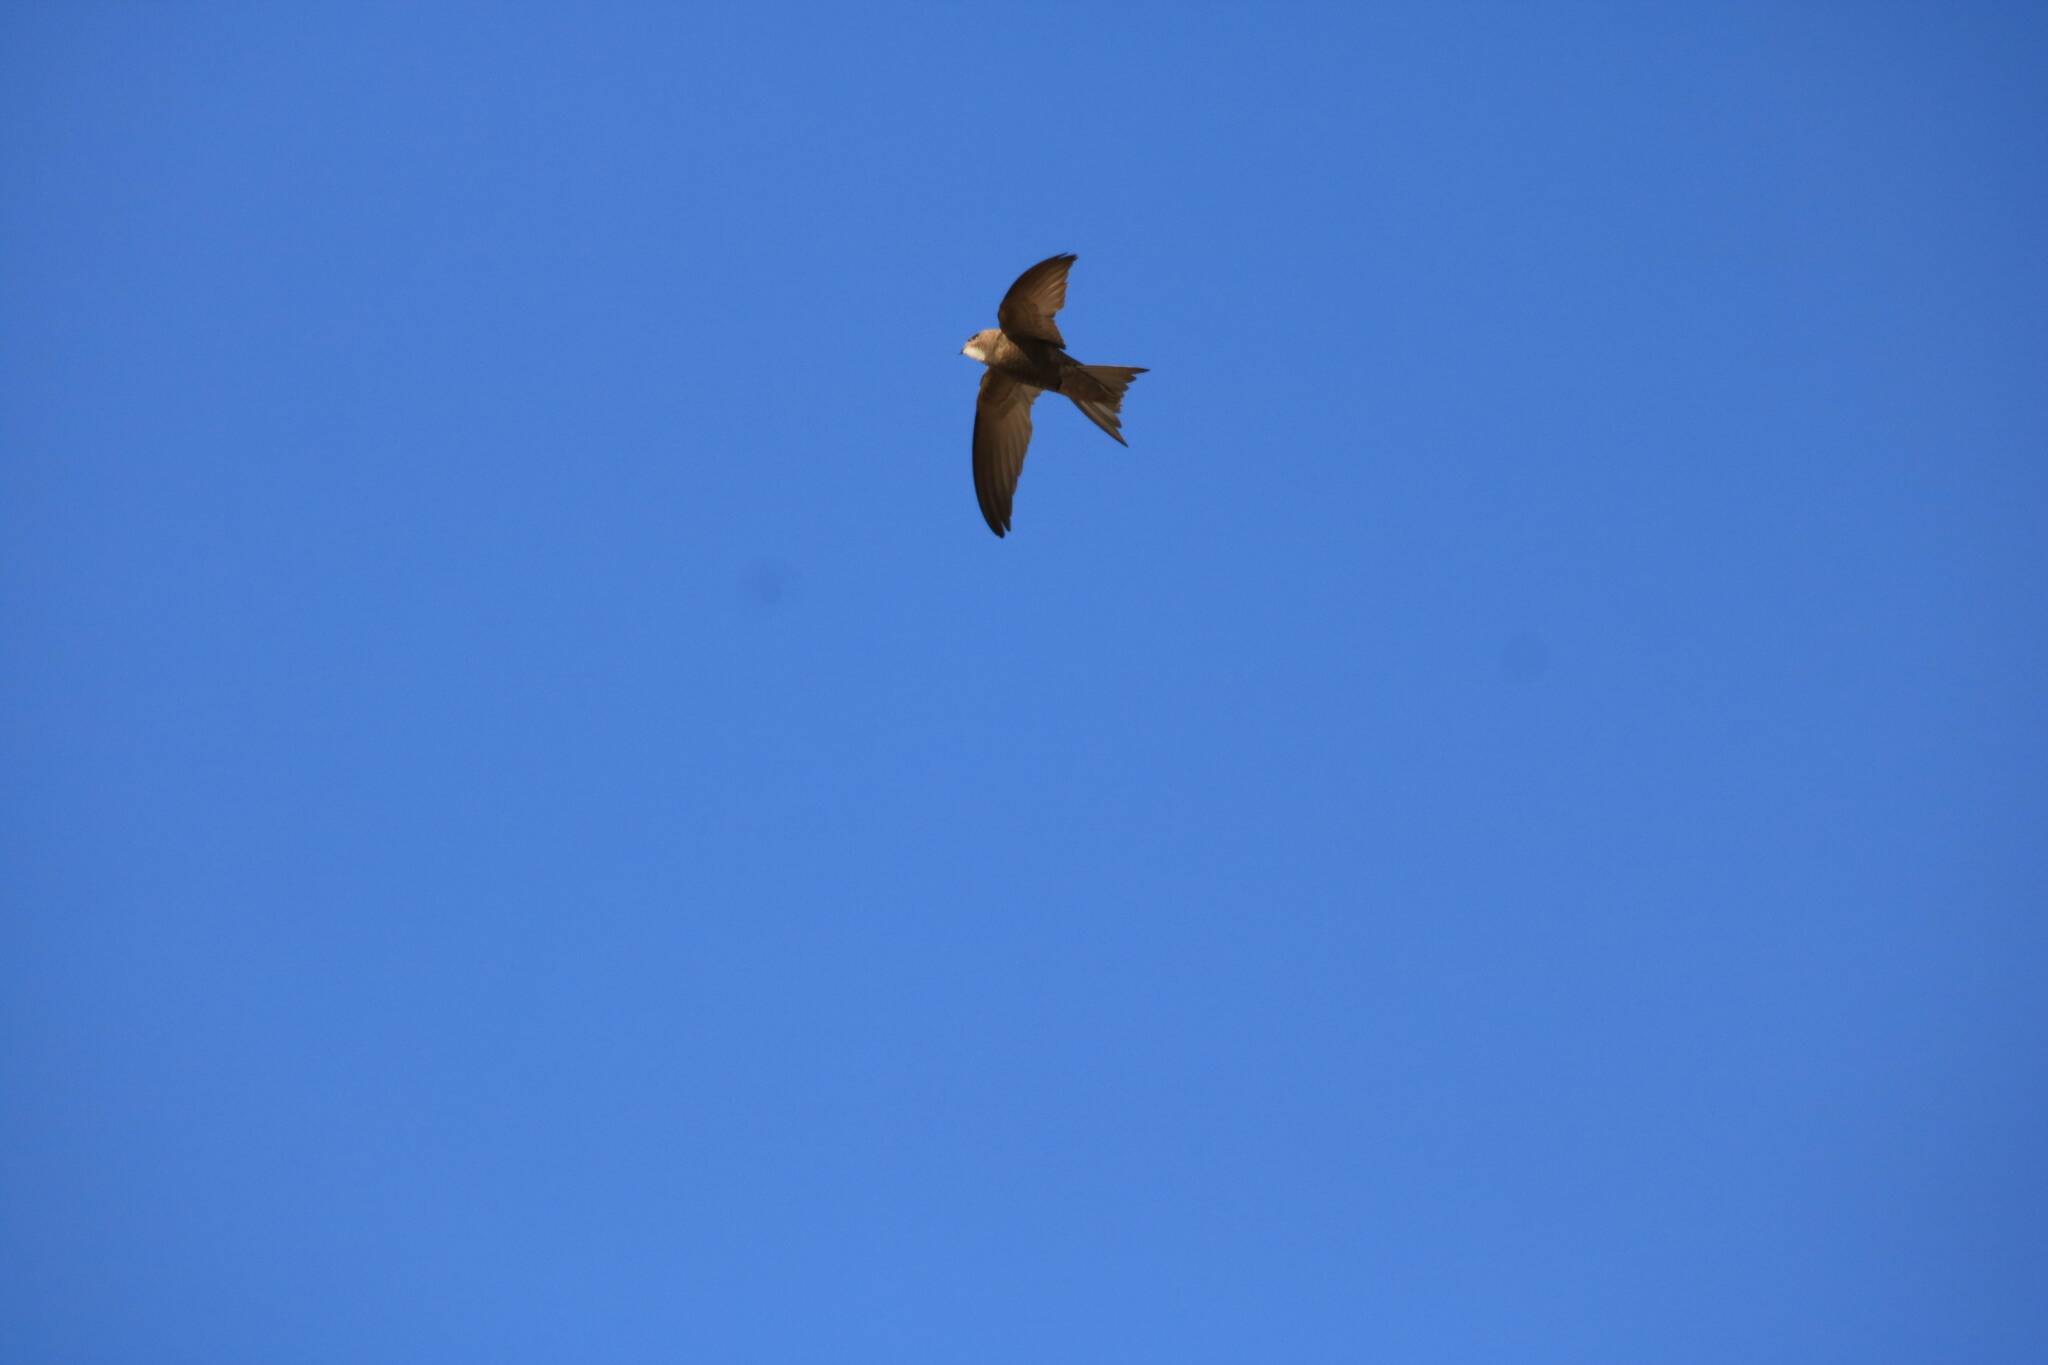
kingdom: Animalia
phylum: Chordata
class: Aves
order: Apodiformes
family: Apodidae
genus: Apus
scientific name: Apus pallidus
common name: Pallid swift
